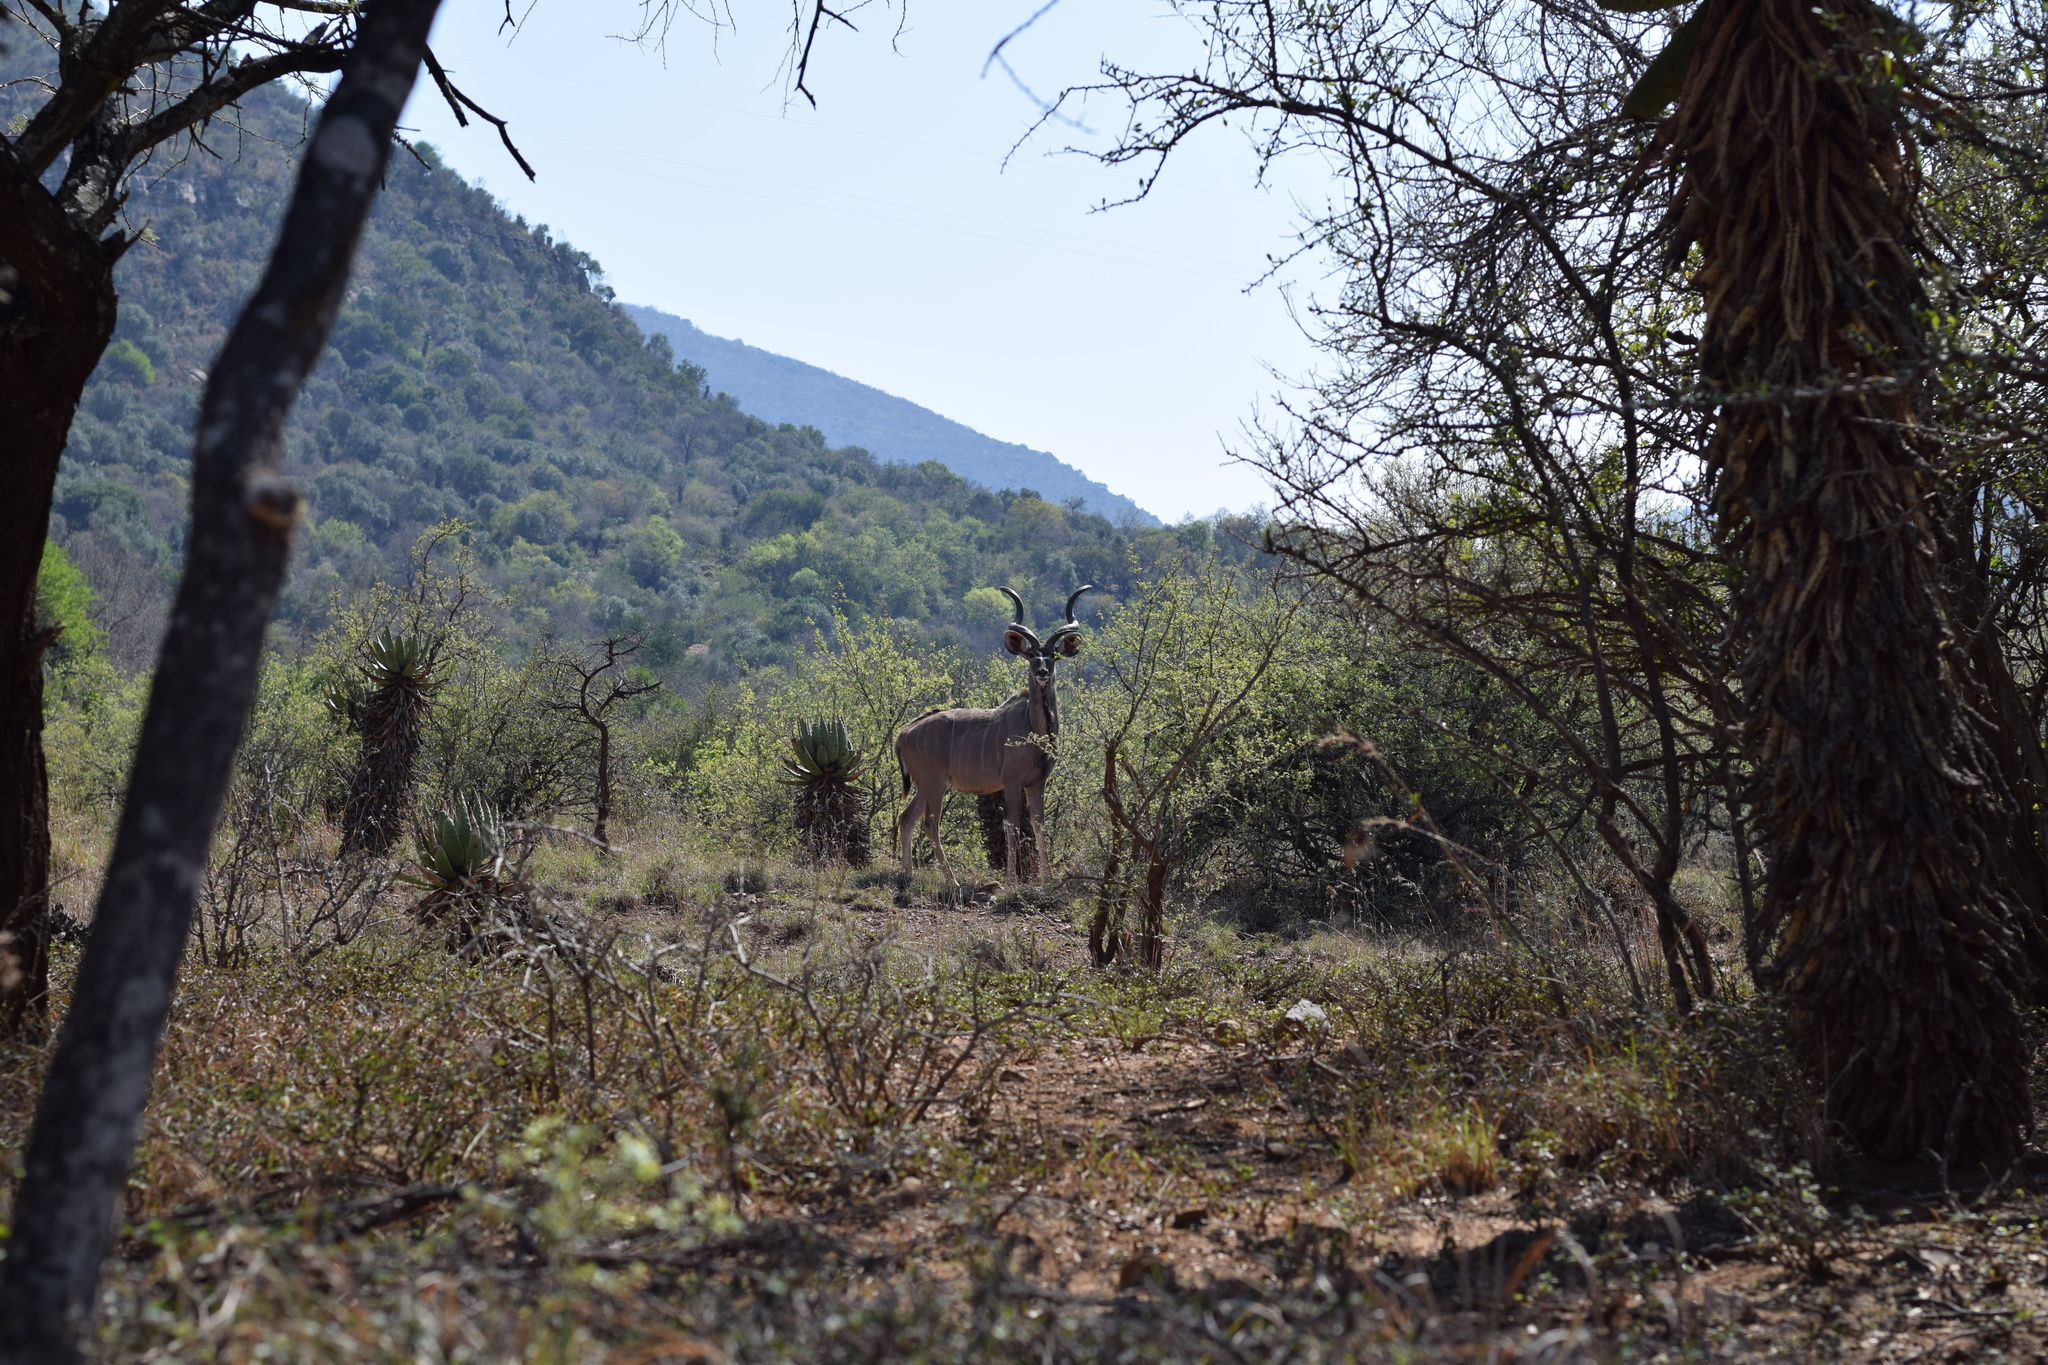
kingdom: Animalia
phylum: Chordata
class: Mammalia
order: Artiodactyla
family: Bovidae
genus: Tragelaphus
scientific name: Tragelaphus strepsiceros
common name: Greater kudu
